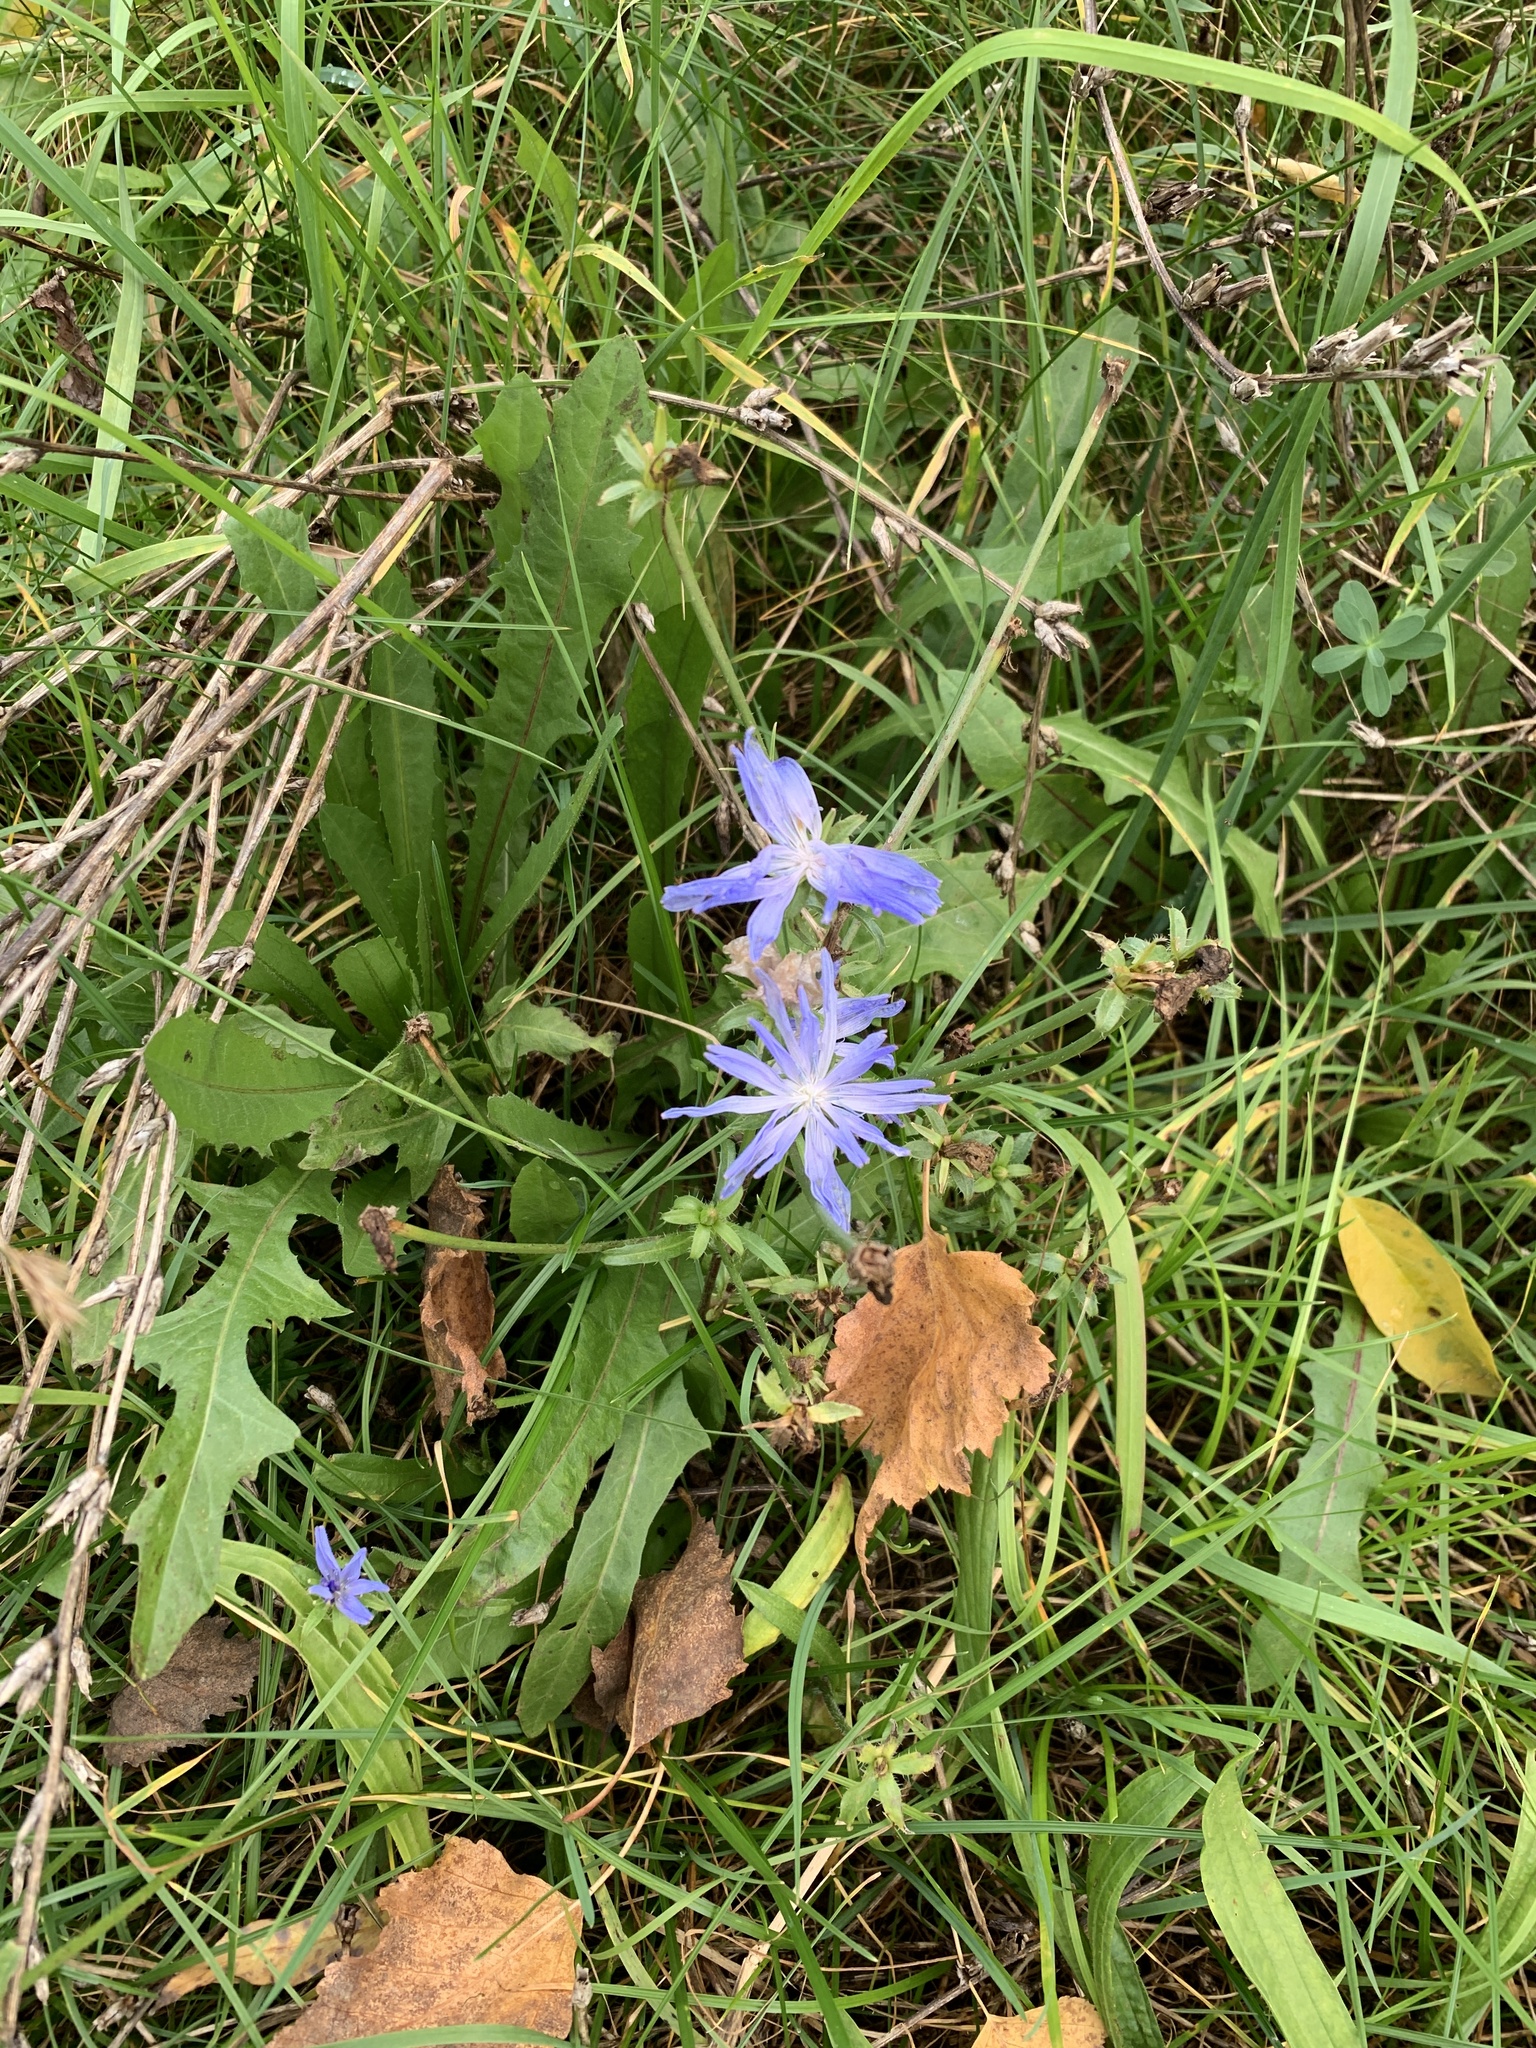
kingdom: Plantae
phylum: Tracheophyta
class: Magnoliopsida
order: Asterales
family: Asteraceae
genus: Cichorium
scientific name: Cichorium intybus
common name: Chicory
